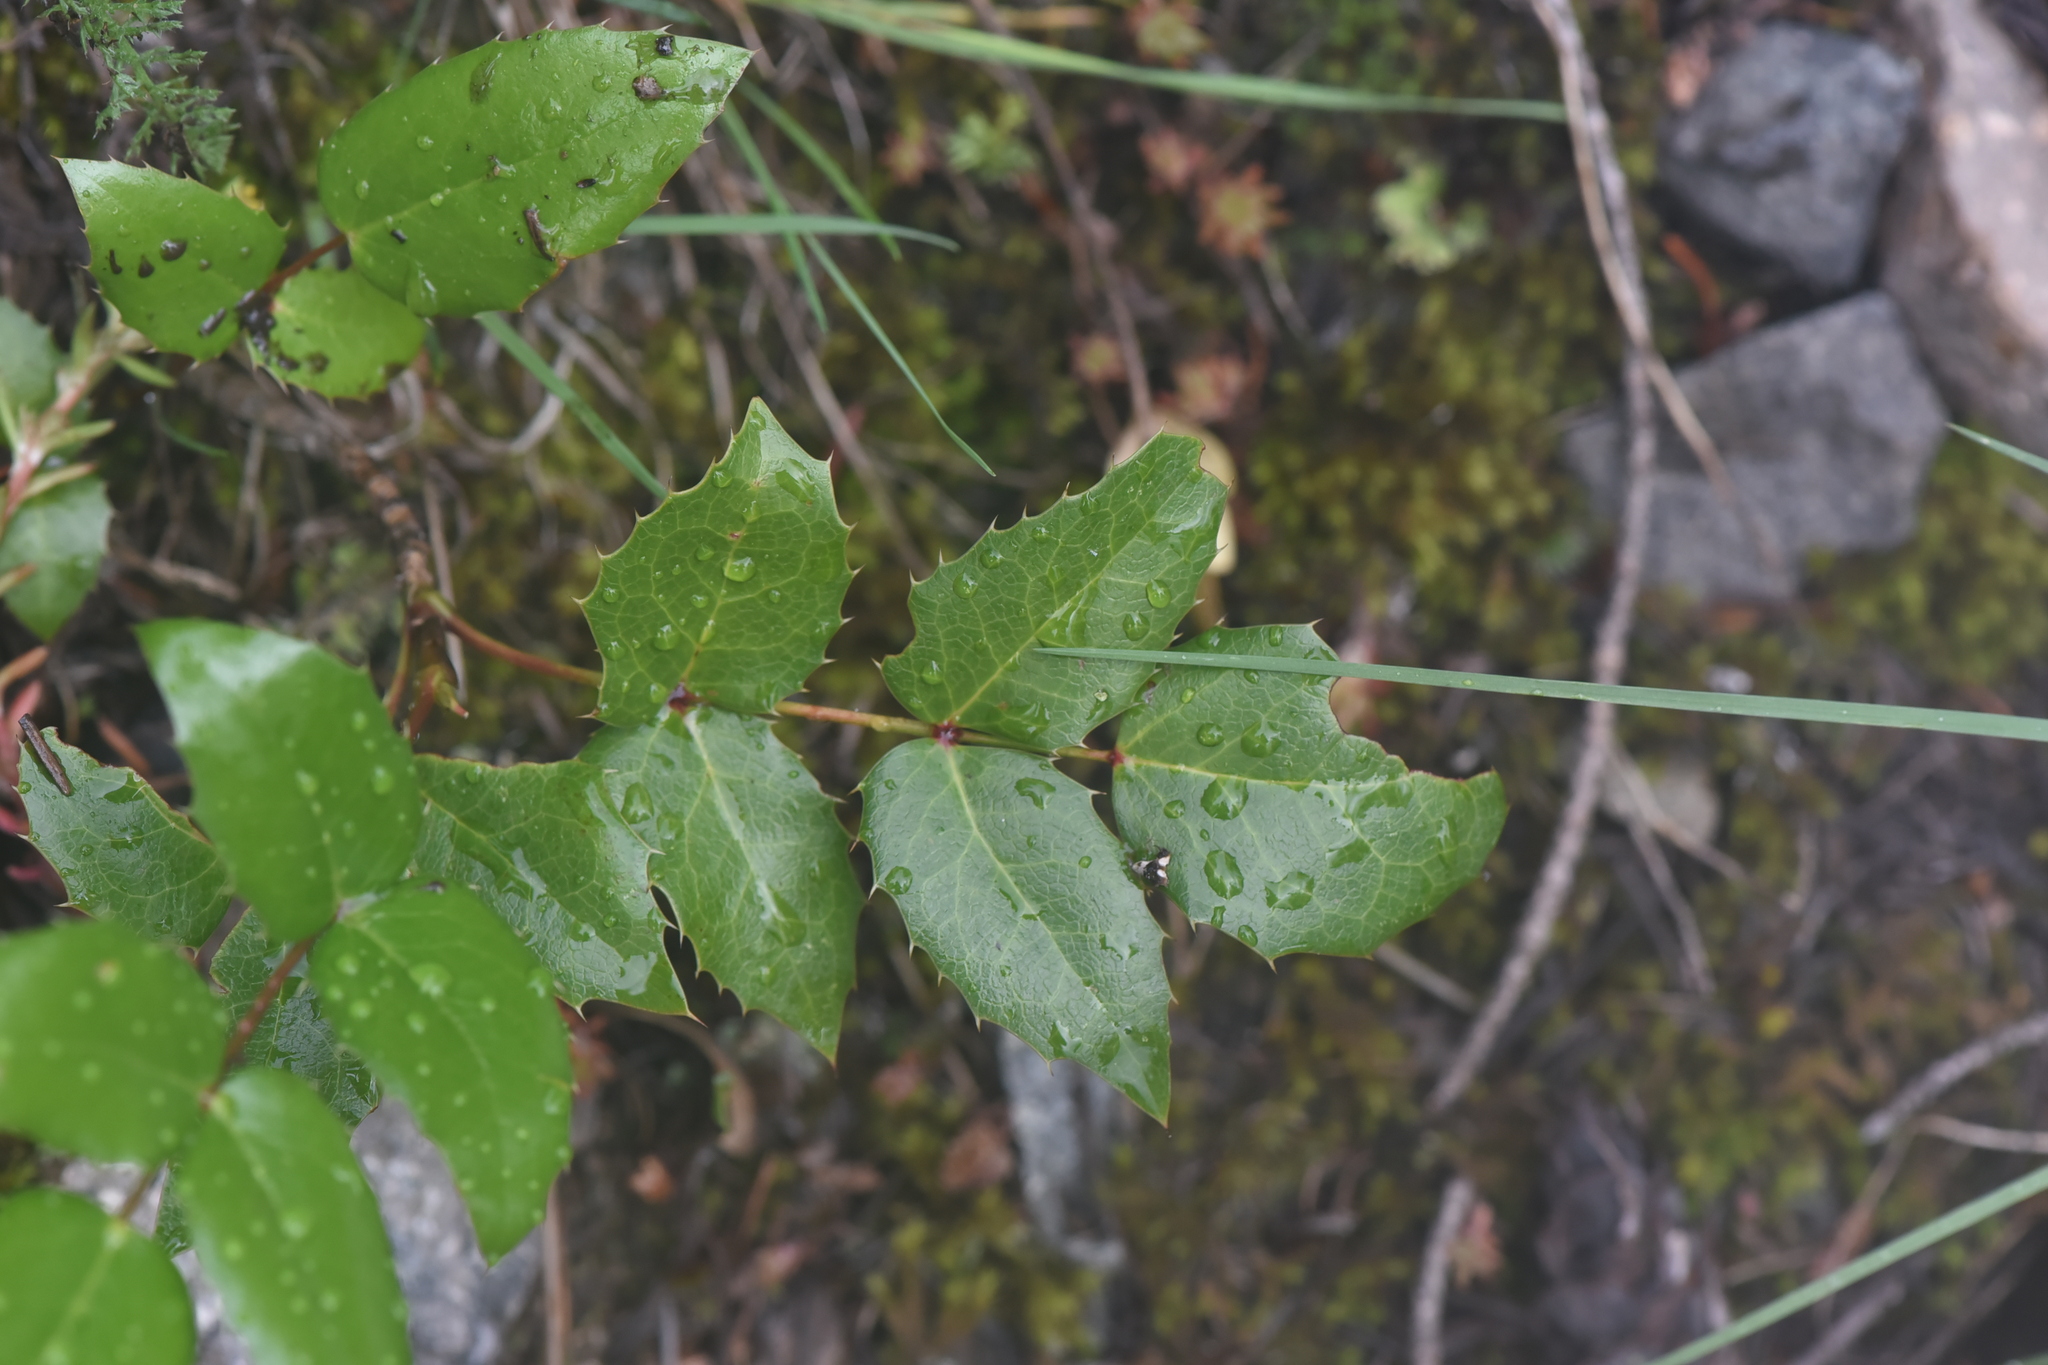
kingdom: Plantae
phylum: Tracheophyta
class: Magnoliopsida
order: Ranunculales
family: Berberidaceae
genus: Mahonia
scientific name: Mahonia aquifolium
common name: Oregon-grape
